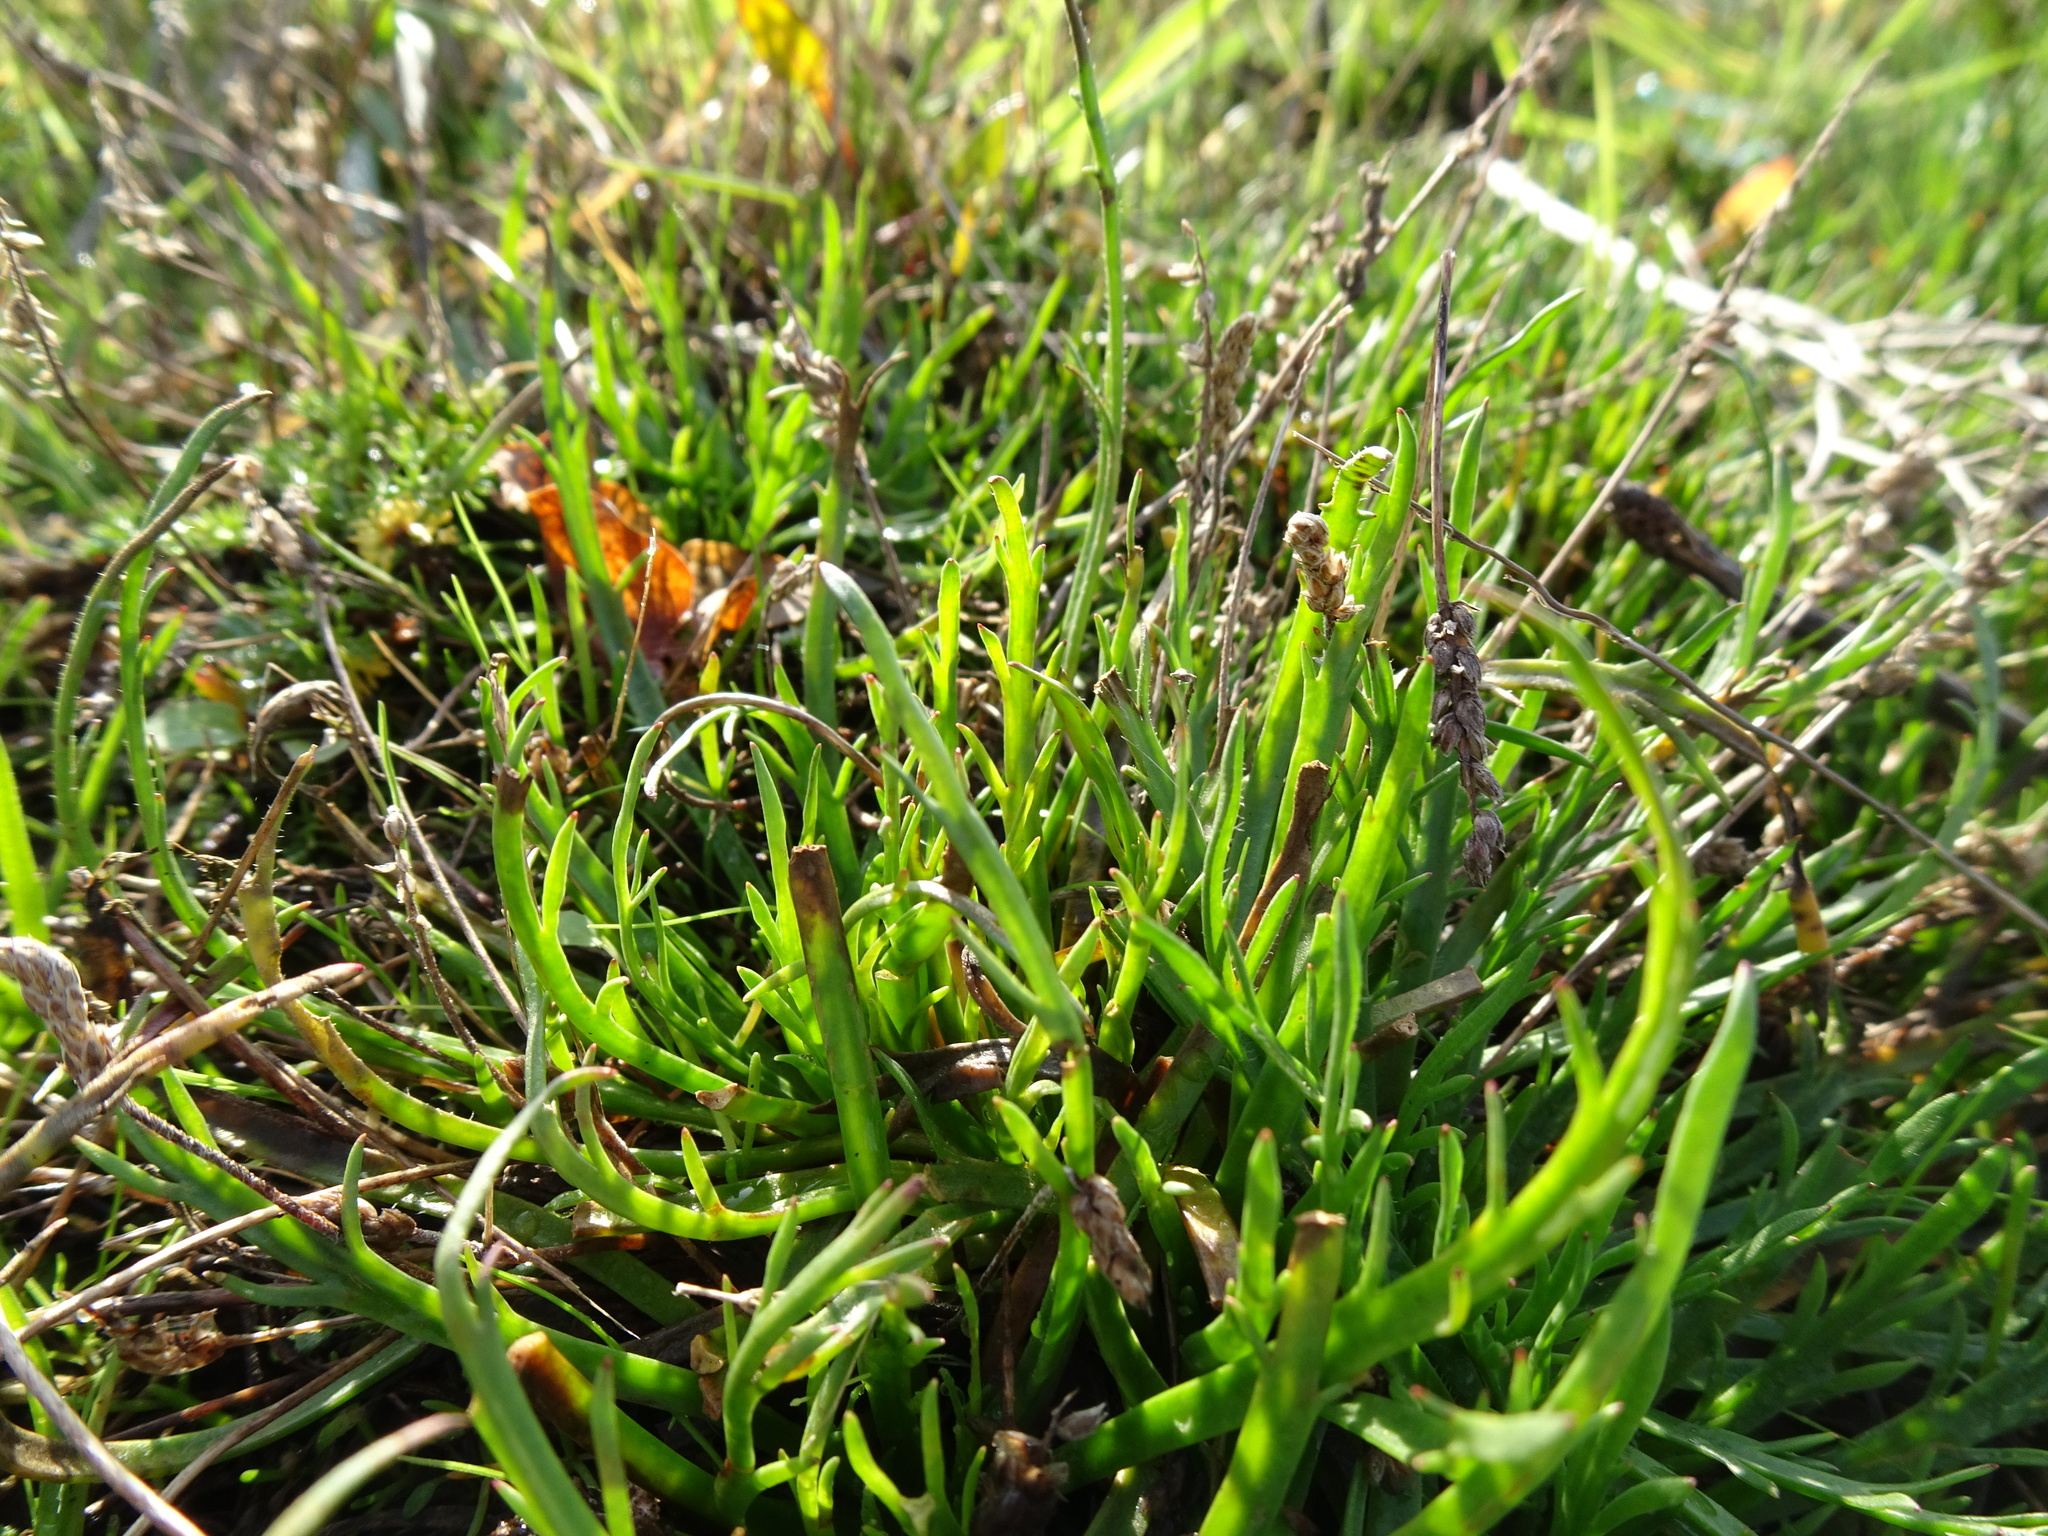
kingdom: Plantae
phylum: Tracheophyta
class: Magnoliopsida
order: Lamiales
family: Plantaginaceae
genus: Plantago
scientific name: Plantago coronopus
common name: Buck's-horn plantain
